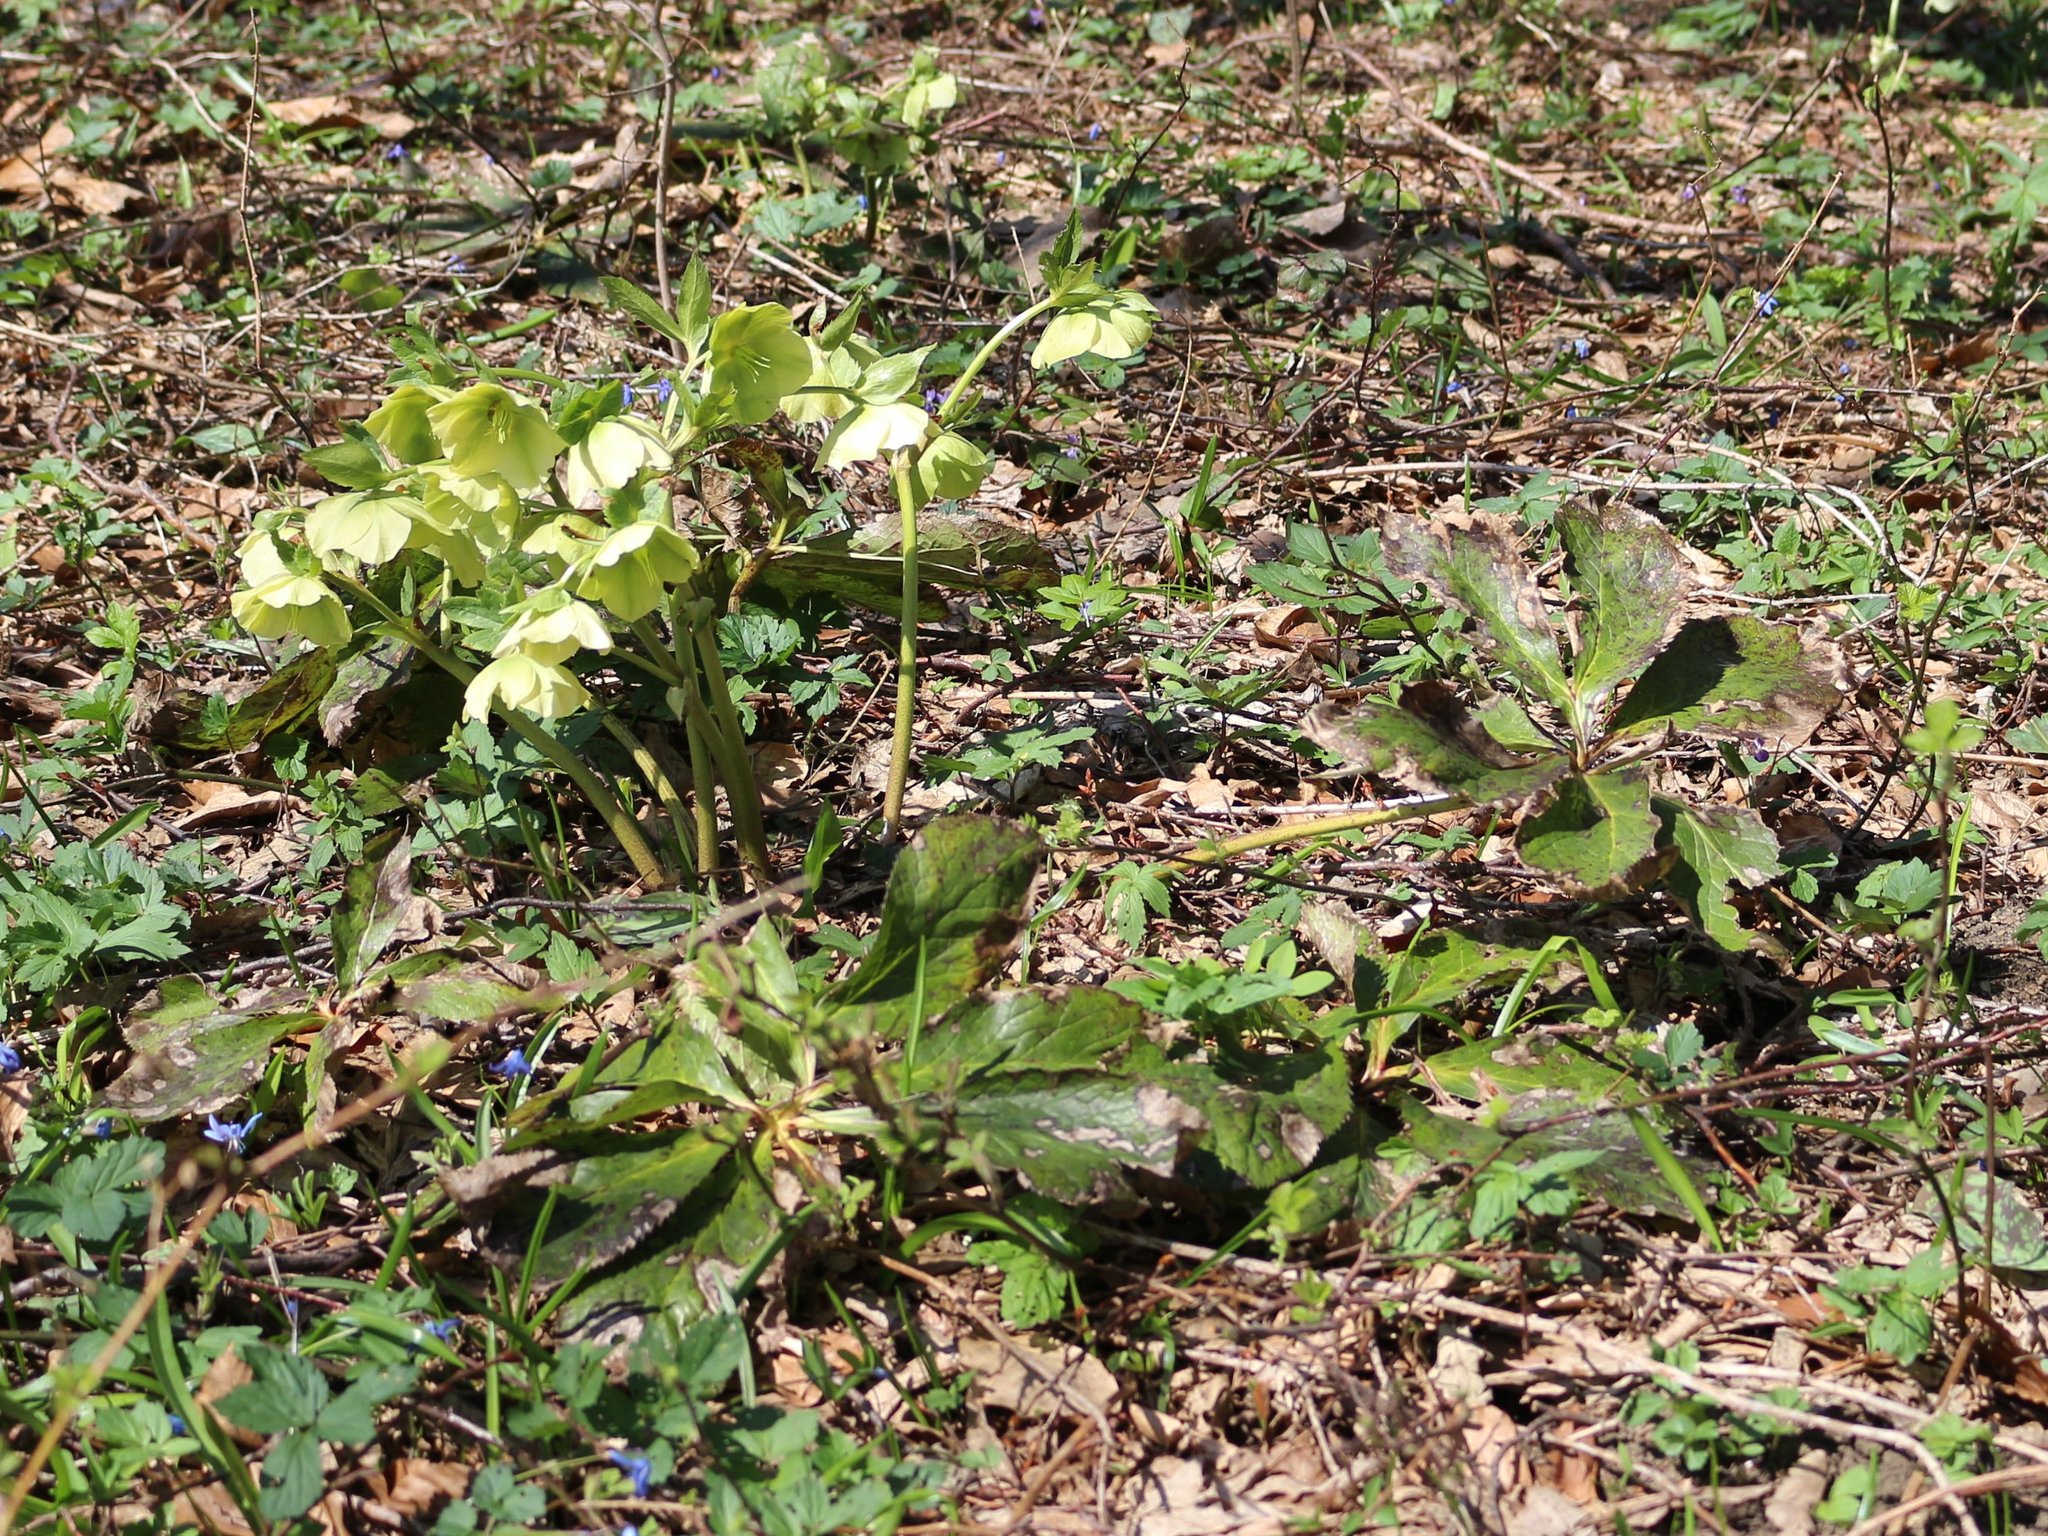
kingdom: Plantae
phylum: Tracheophyta
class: Magnoliopsida
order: Ranunculales
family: Ranunculaceae
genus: Helleborus
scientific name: Helleborus orientalis
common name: Lenten-rose
